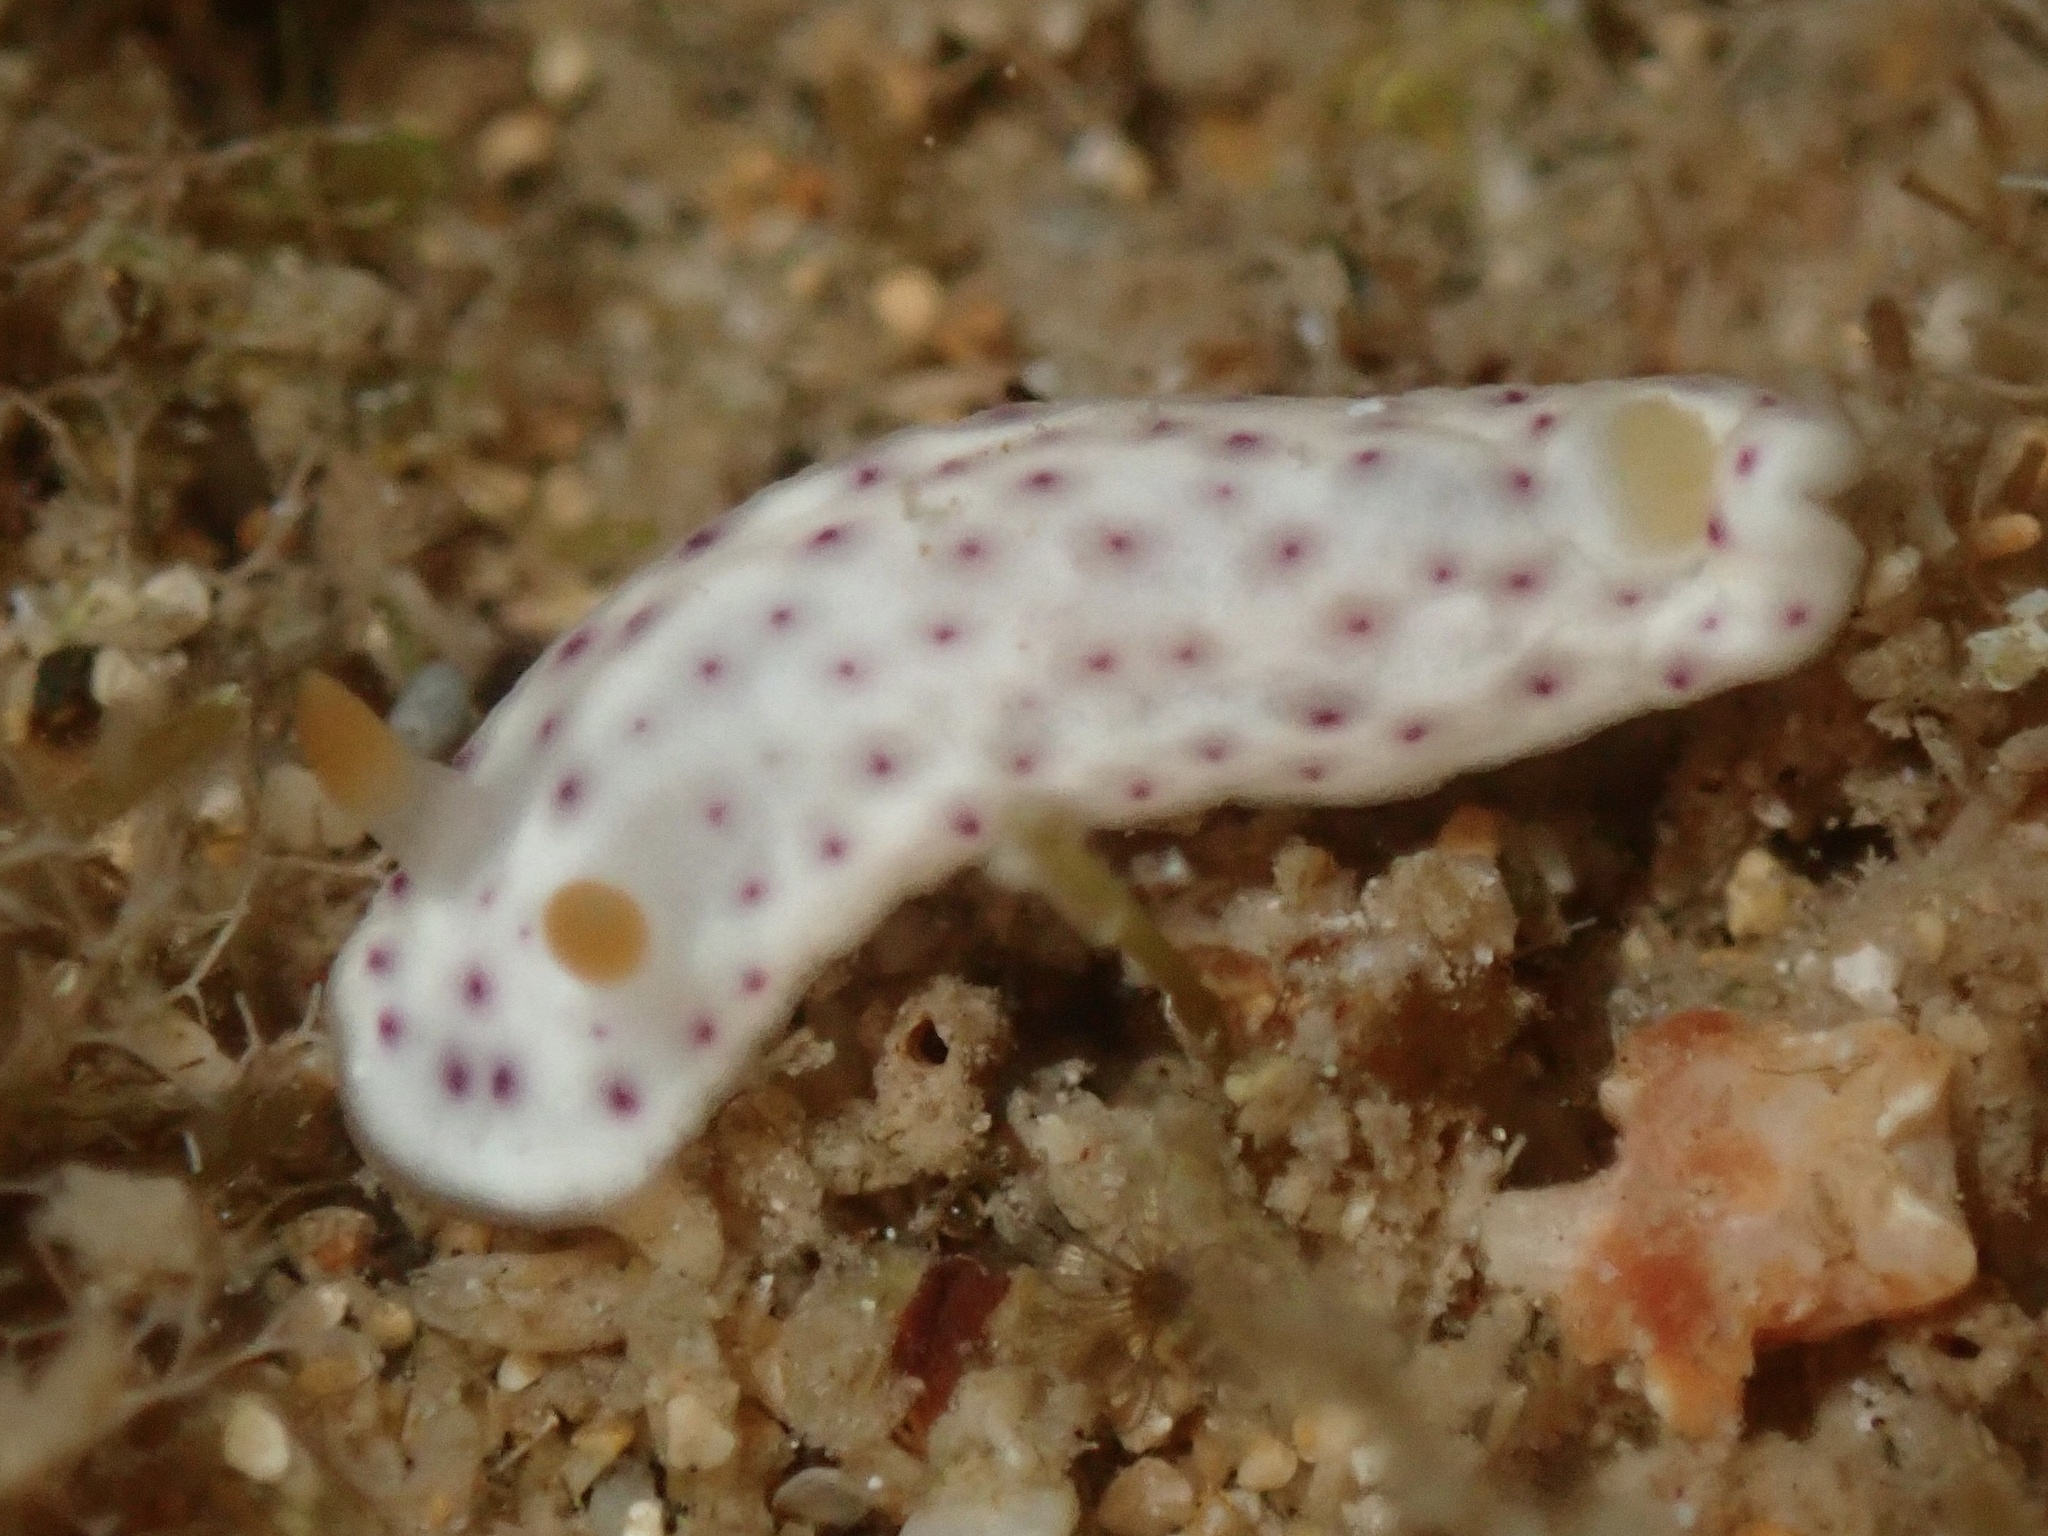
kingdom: Animalia
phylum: Mollusca
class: Gastropoda
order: Nudibranchia
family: Chromodorididae
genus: Chromodoris
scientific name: Chromodoris aspersa
